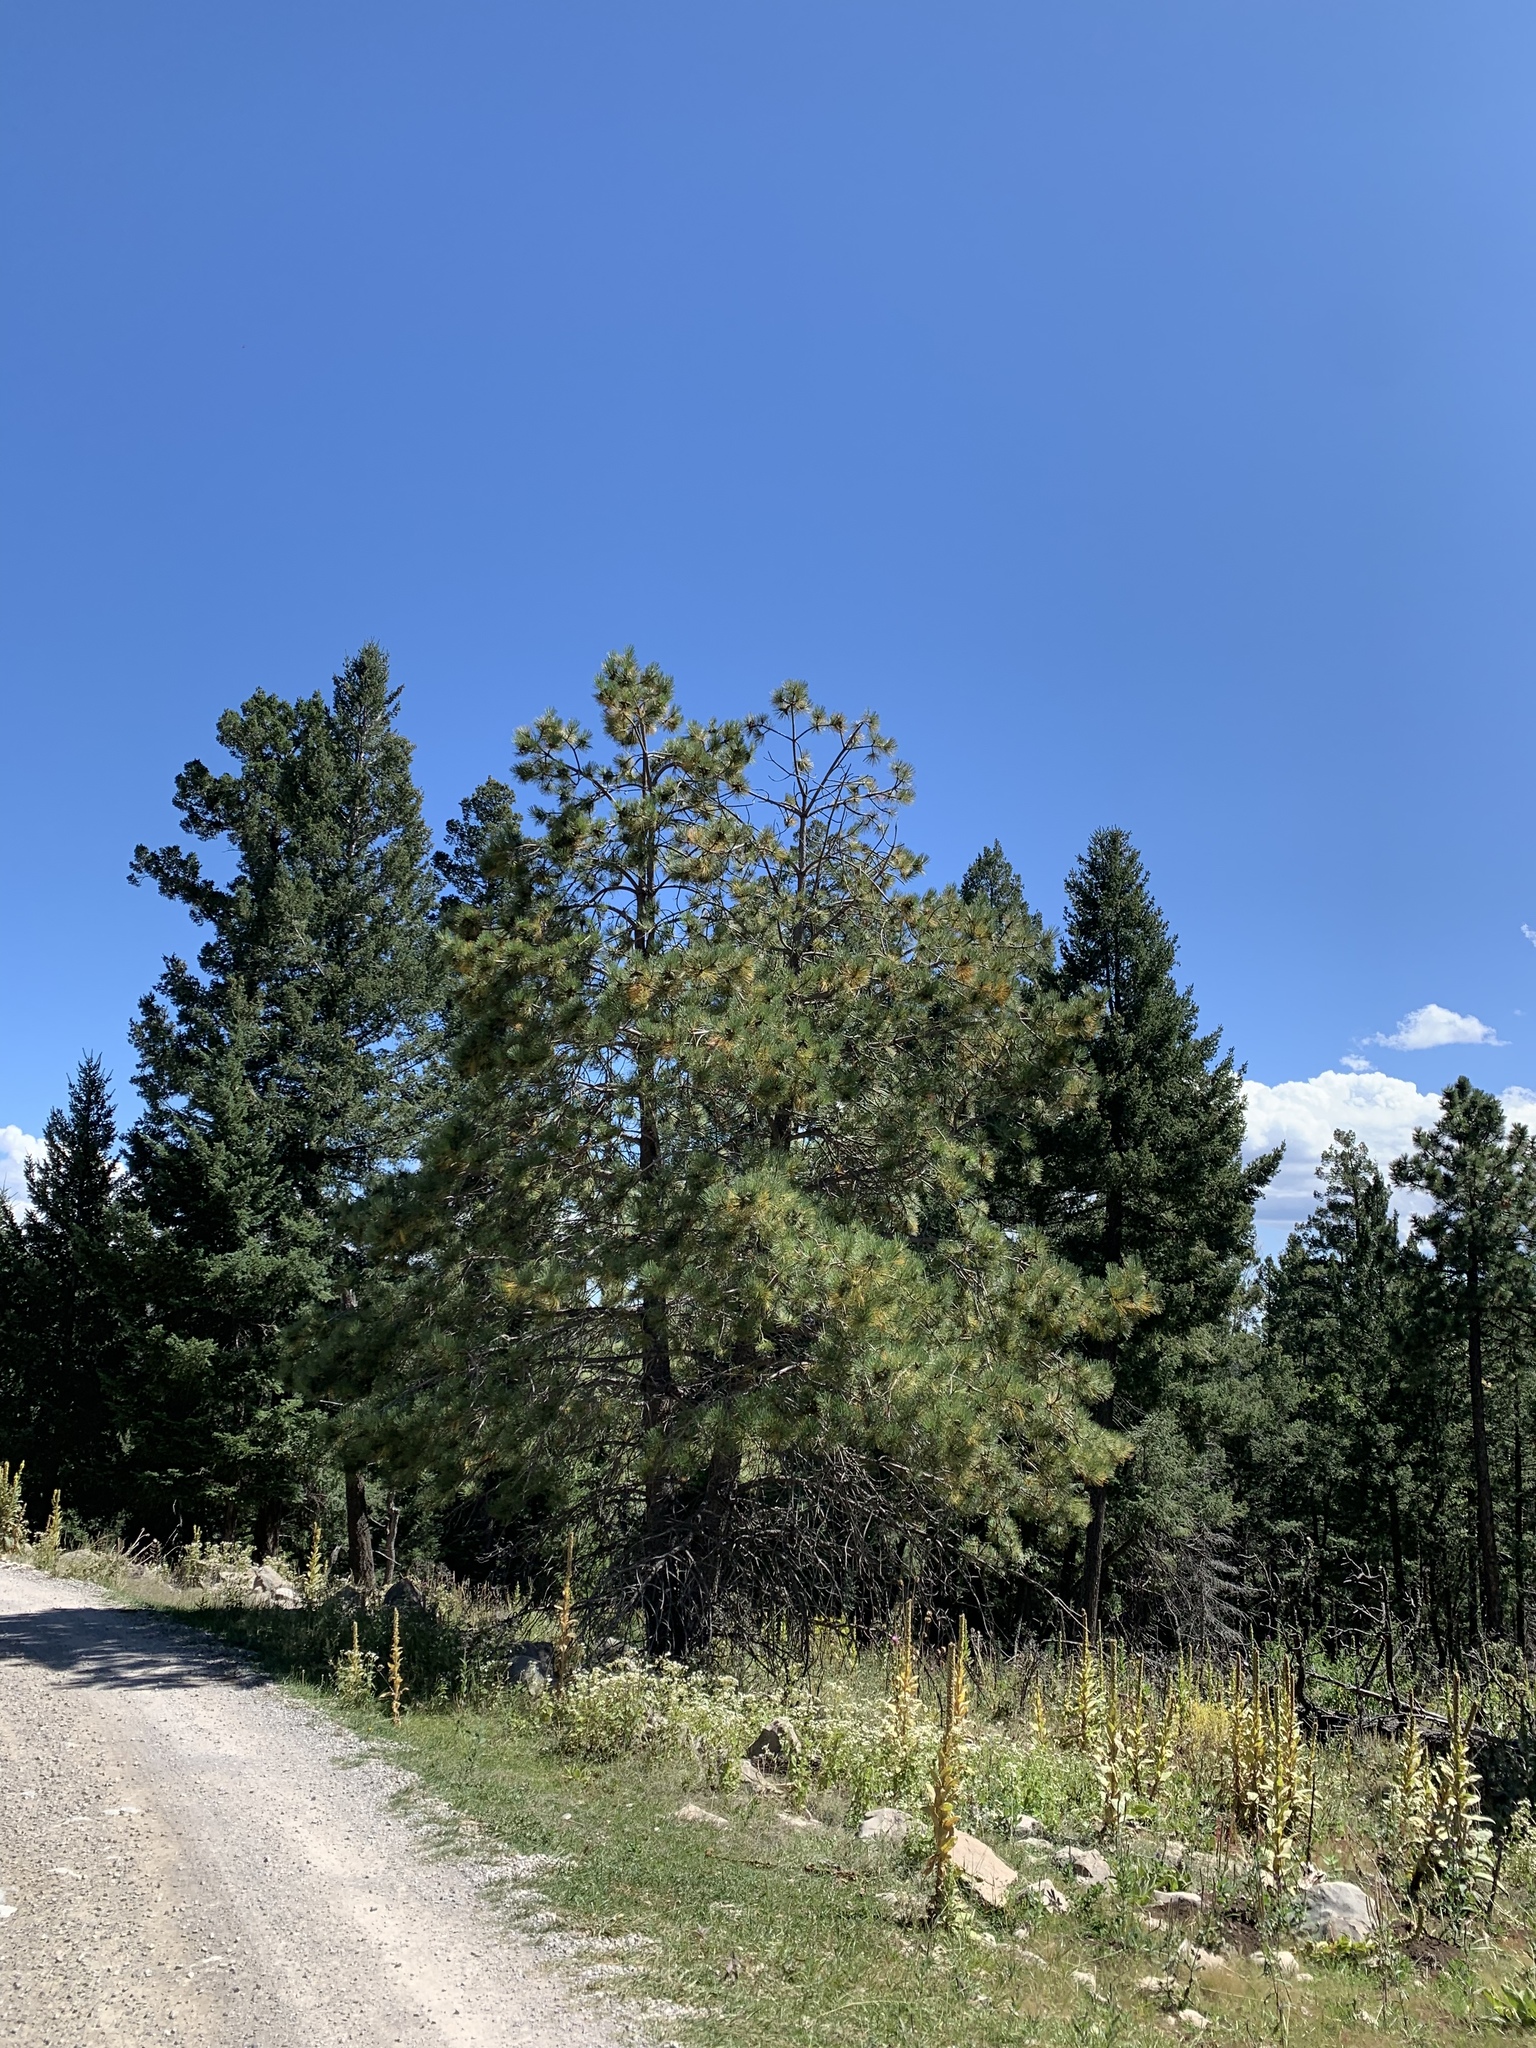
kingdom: Plantae
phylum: Tracheophyta
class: Pinopsida
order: Pinales
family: Pinaceae
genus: Pinus
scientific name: Pinus ponderosa
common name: Western yellow-pine
